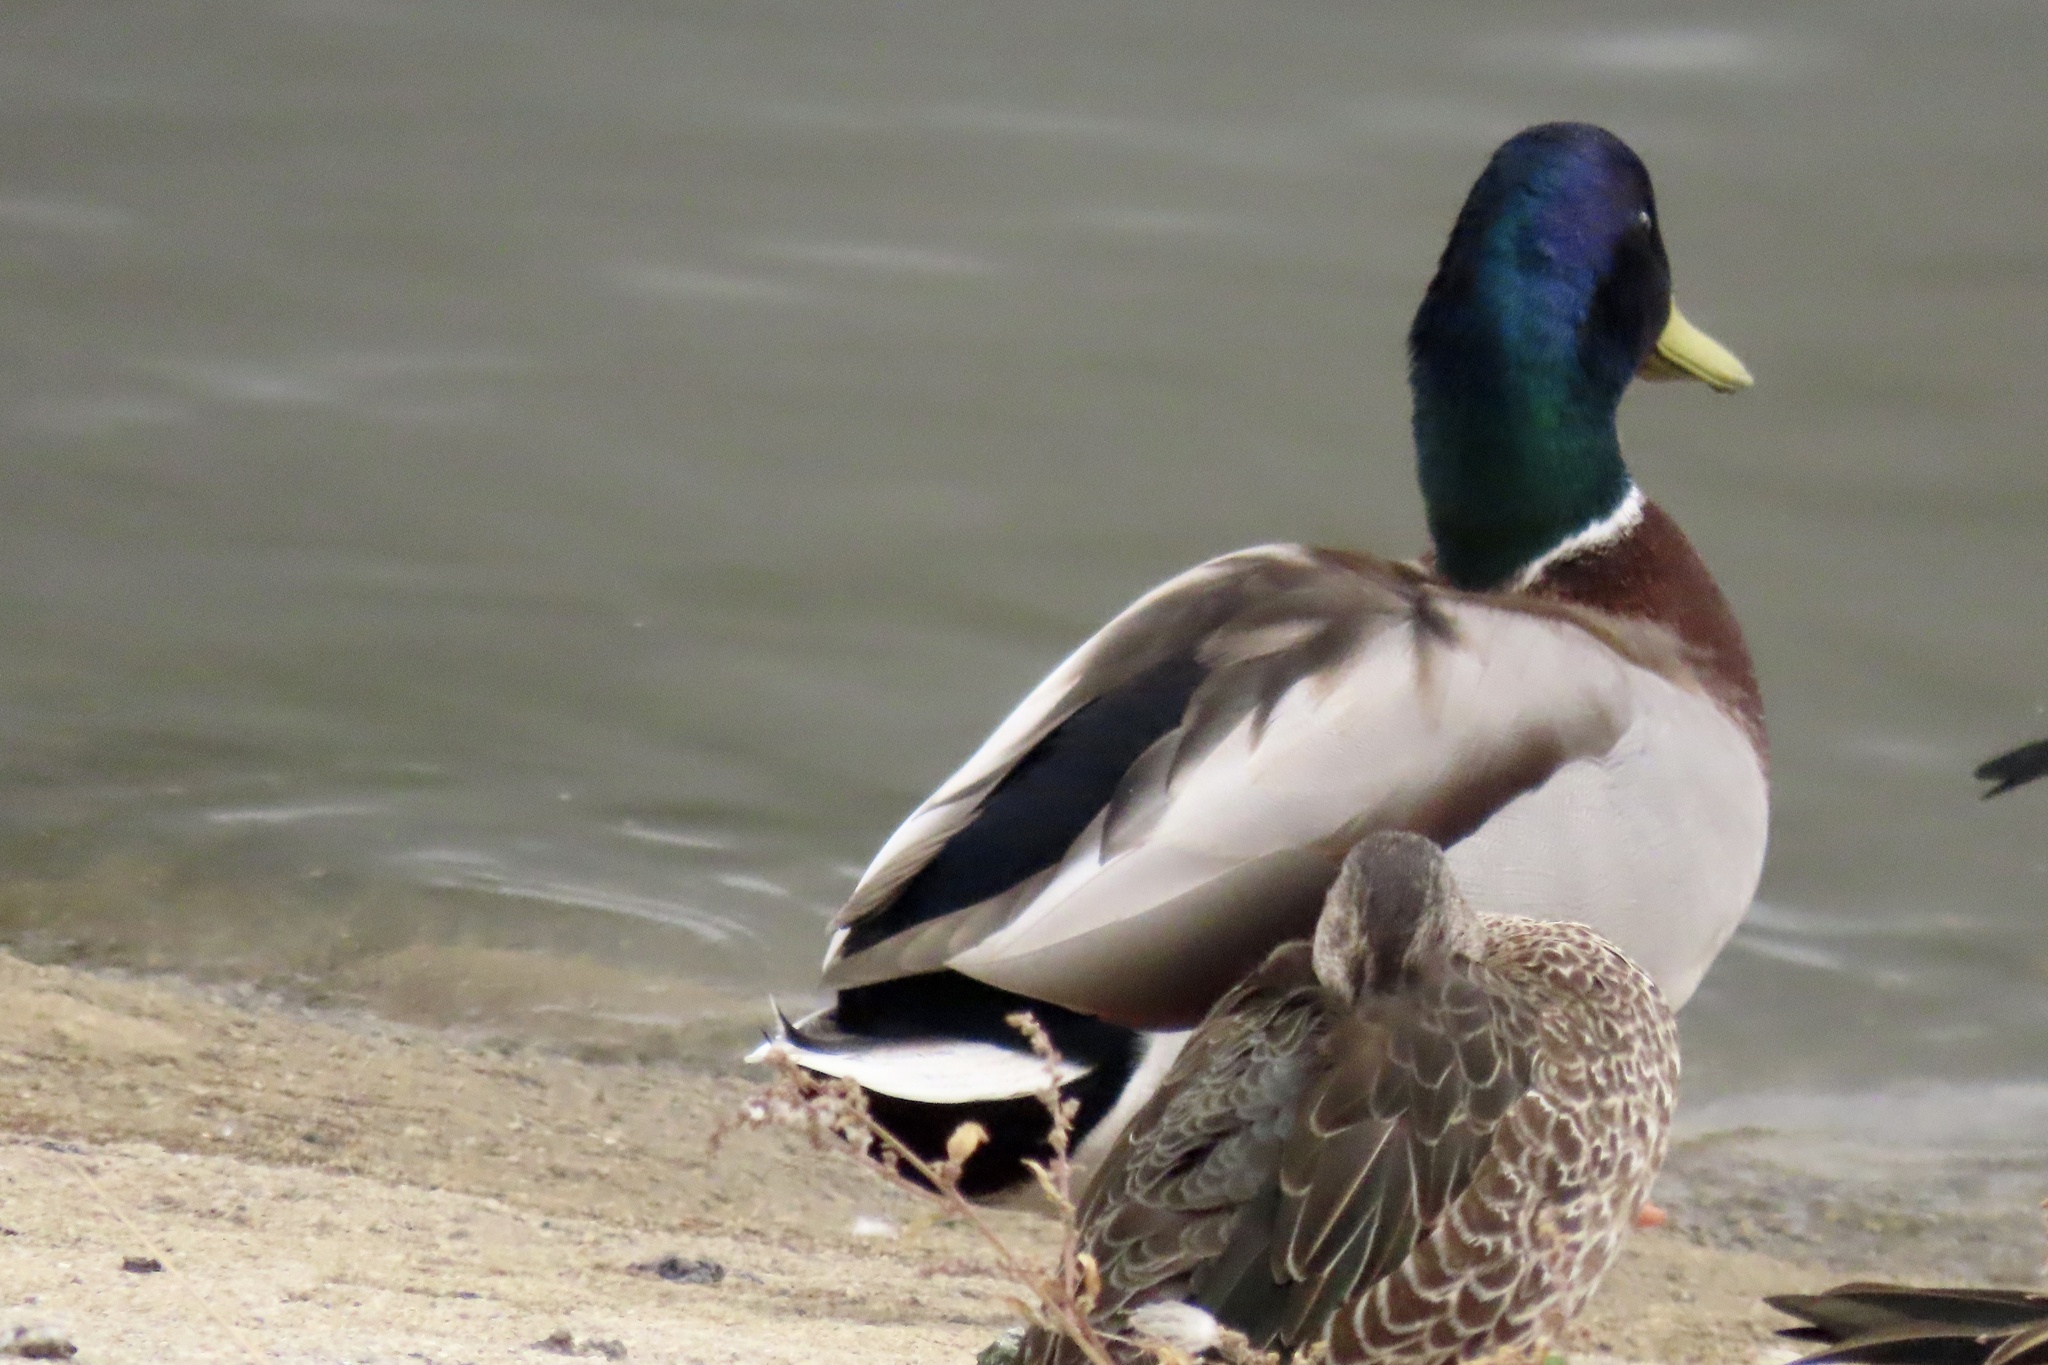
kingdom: Animalia
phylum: Chordata
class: Aves
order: Anseriformes
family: Anatidae
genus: Anas
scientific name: Anas platyrhynchos
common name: Mallard
